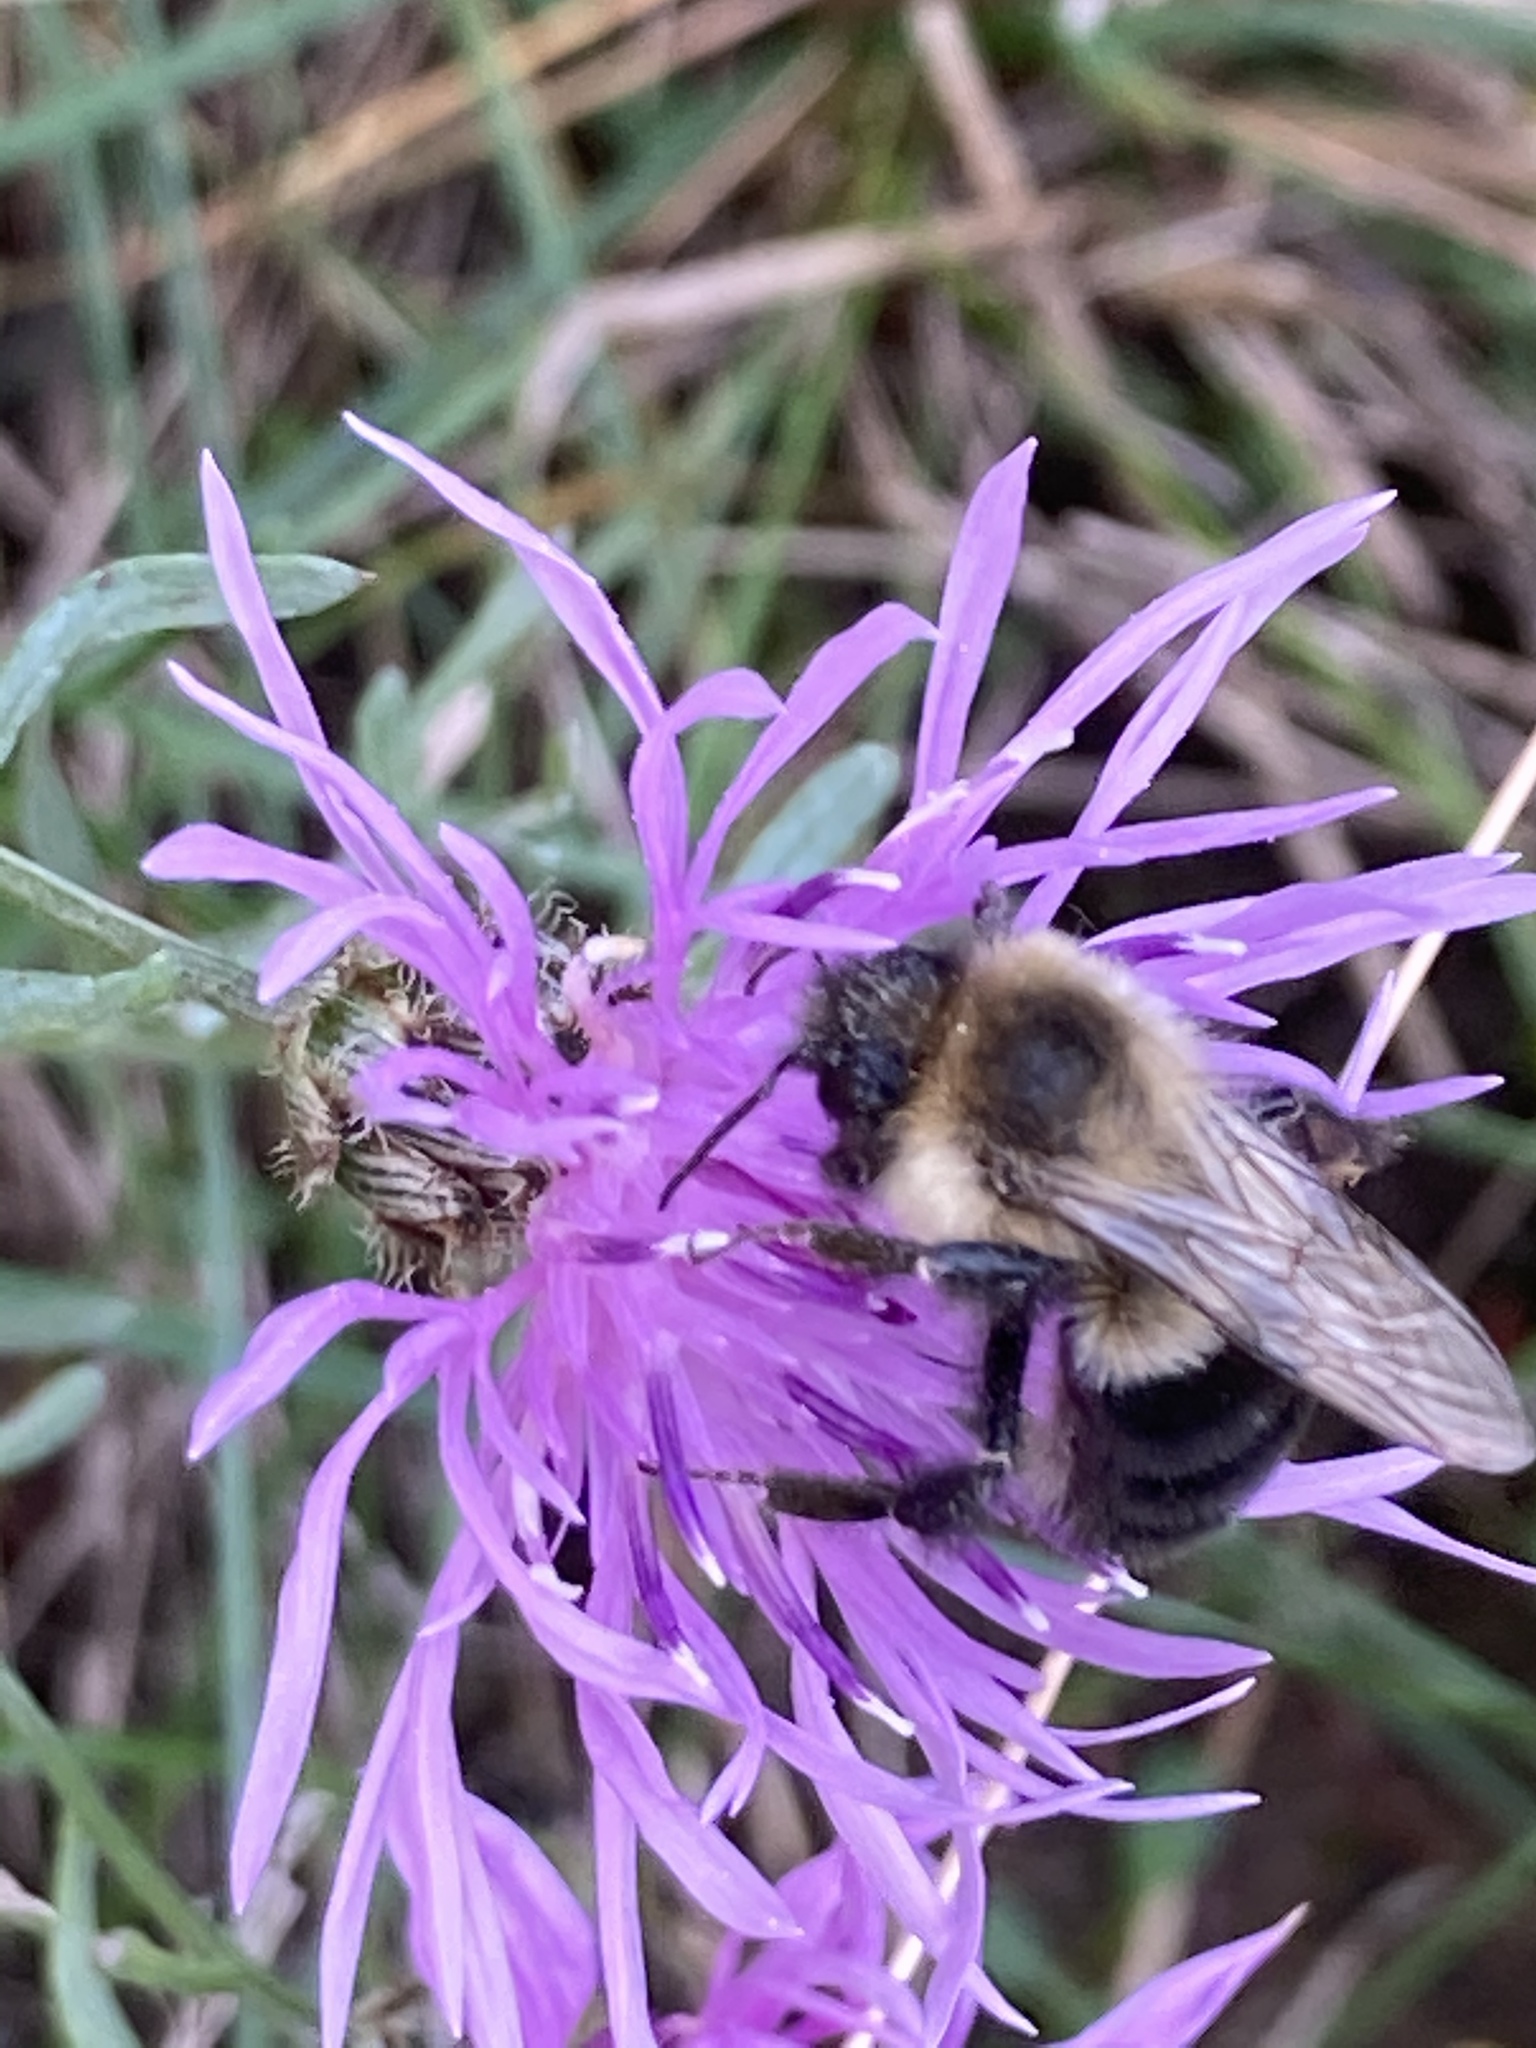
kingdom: Animalia
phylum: Arthropoda
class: Insecta
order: Hymenoptera
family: Apidae
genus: Bombus
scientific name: Bombus impatiens
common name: Common eastern bumble bee
